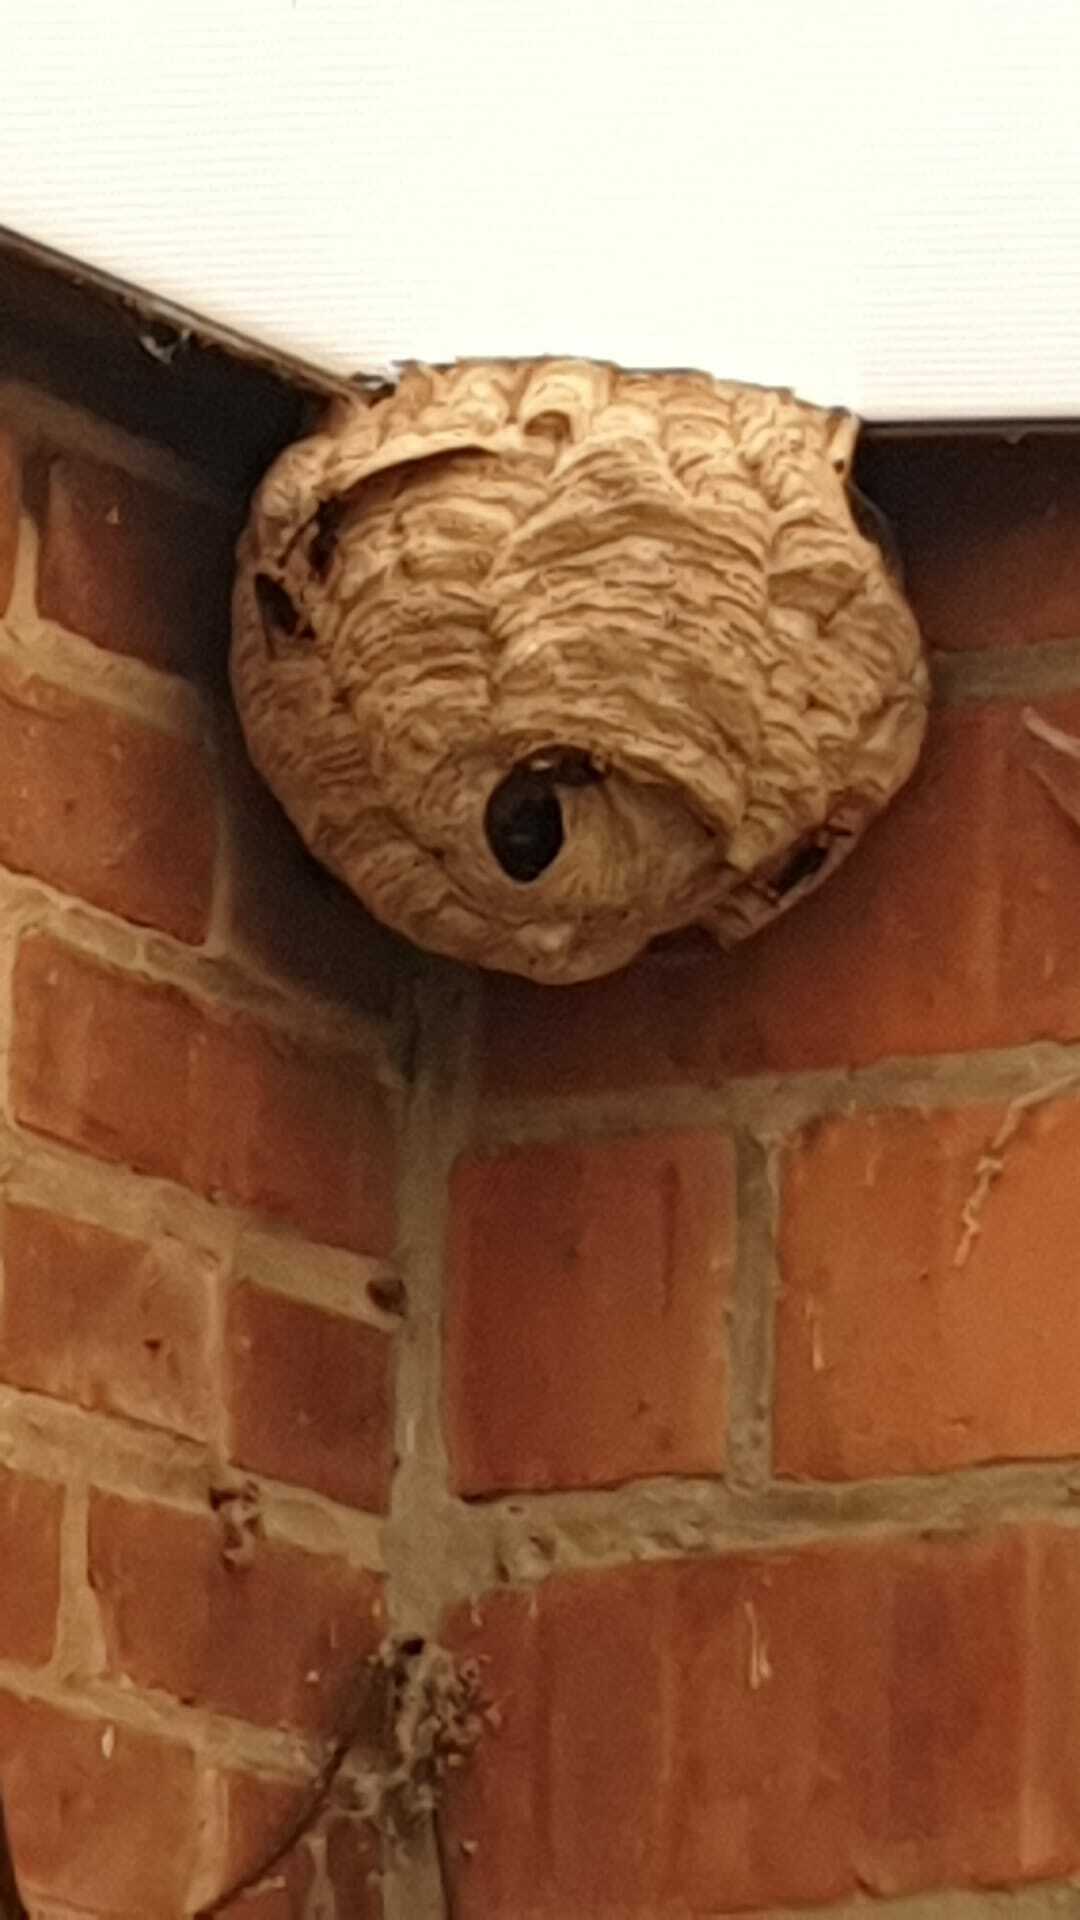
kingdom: Animalia
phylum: Arthropoda
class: Insecta
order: Hymenoptera
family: Vespidae
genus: Vespa
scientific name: Vespa velutina
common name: Asian hornet
